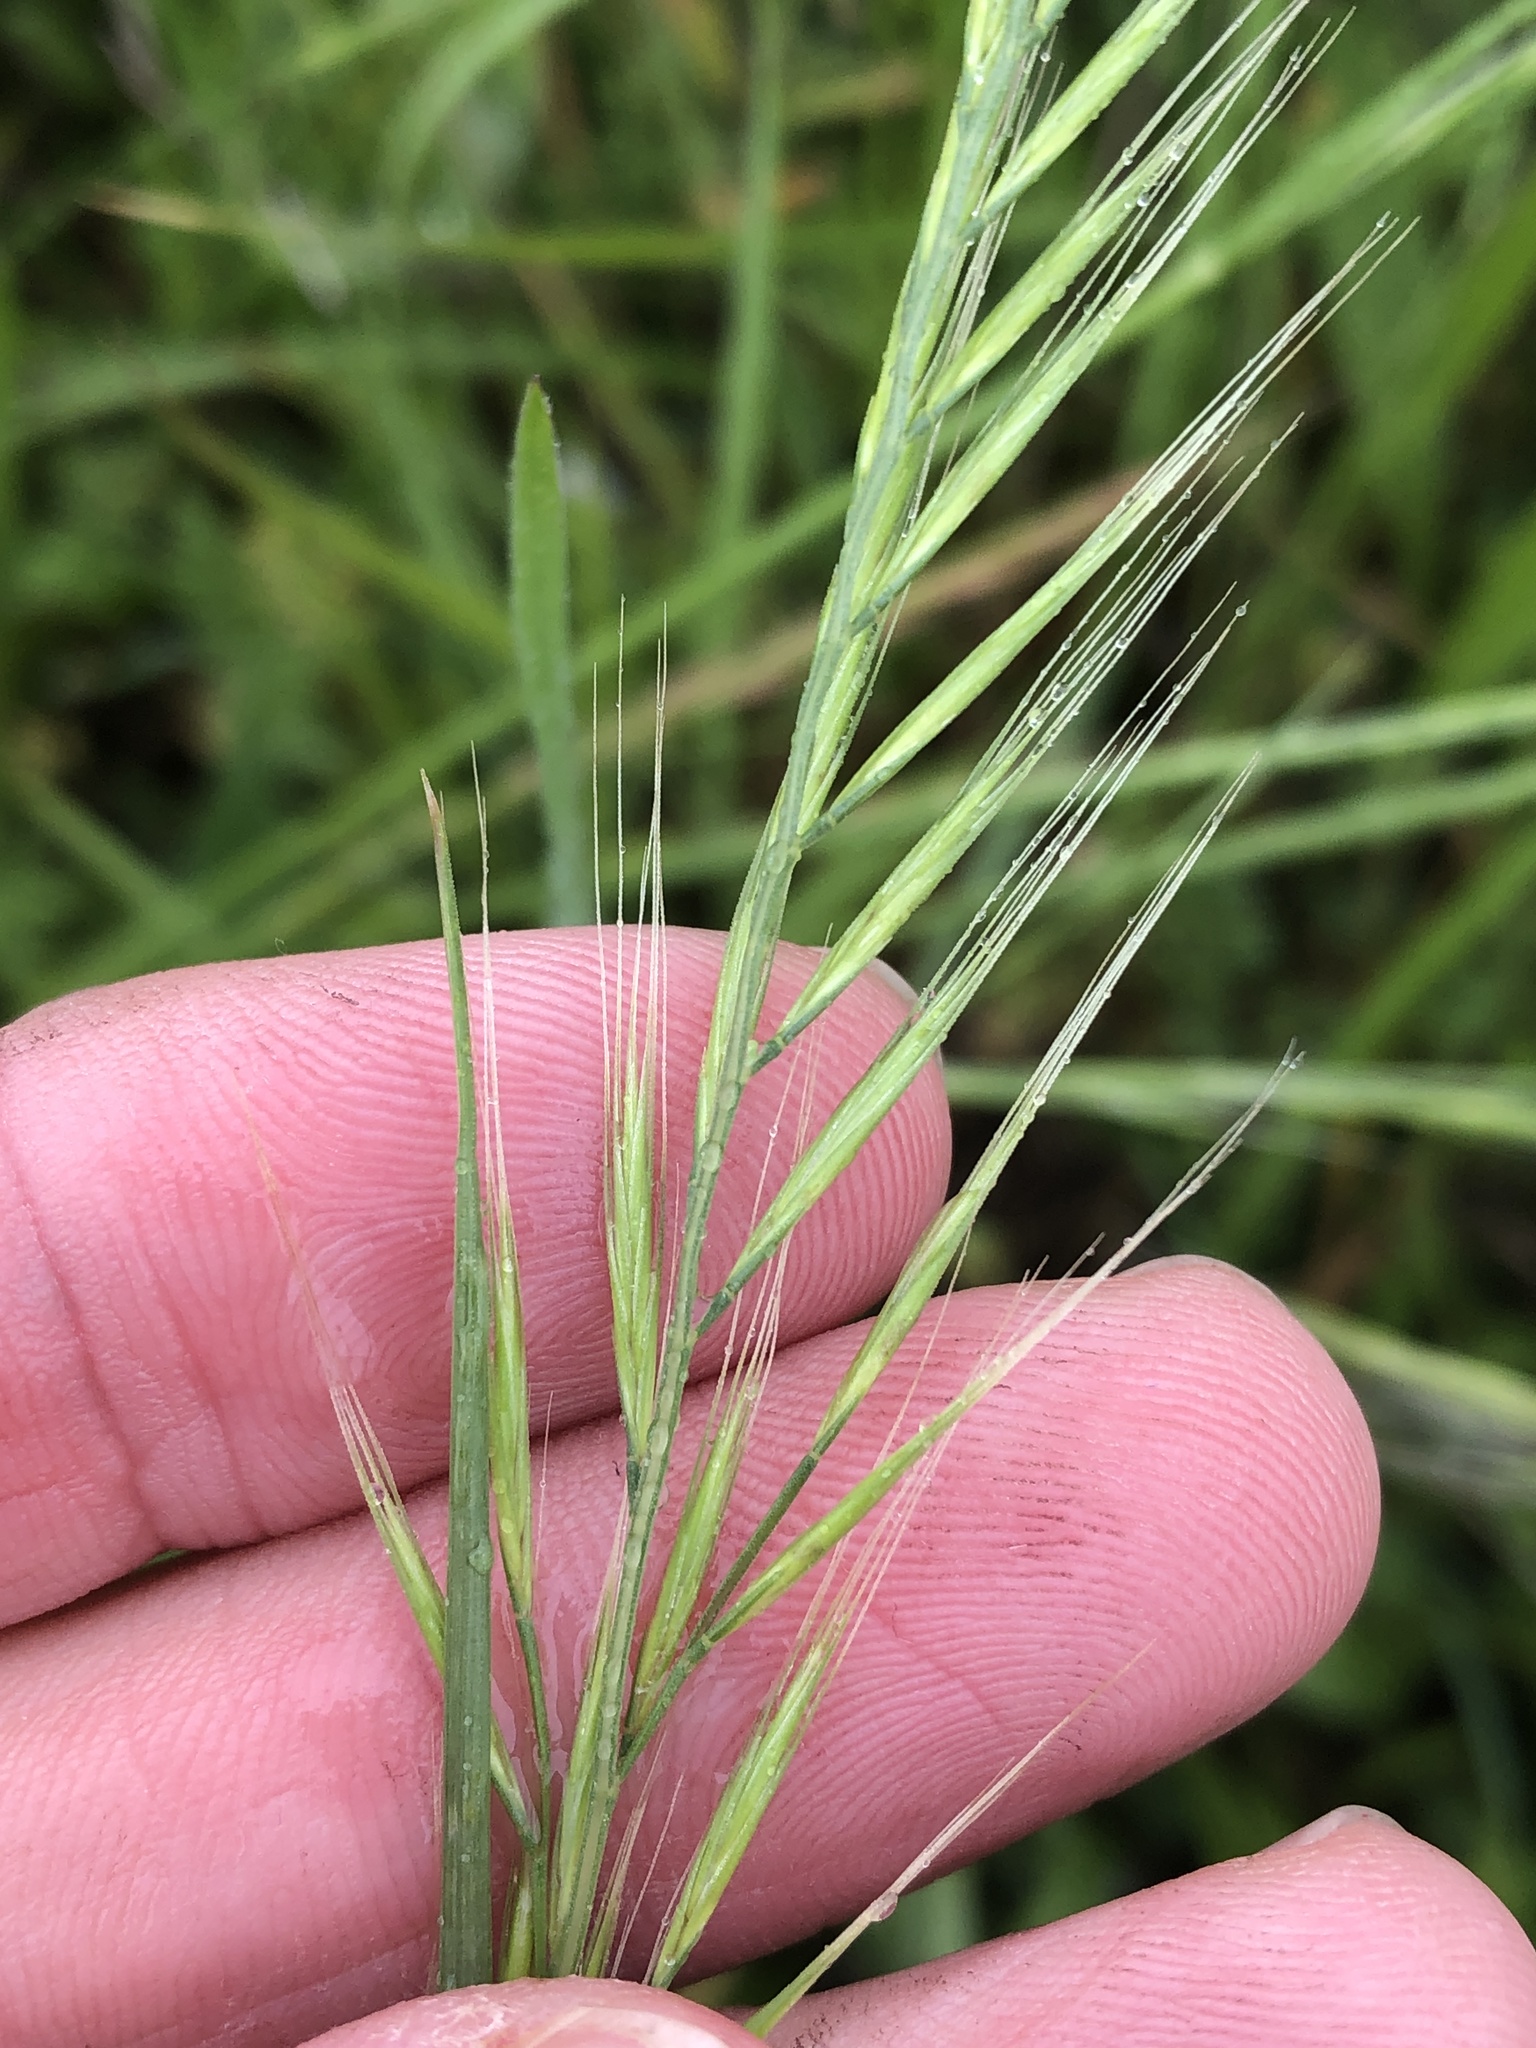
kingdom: Plantae
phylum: Tracheophyta
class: Liliopsida
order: Poales
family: Poaceae
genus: Festuca
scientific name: Festuca myuros
